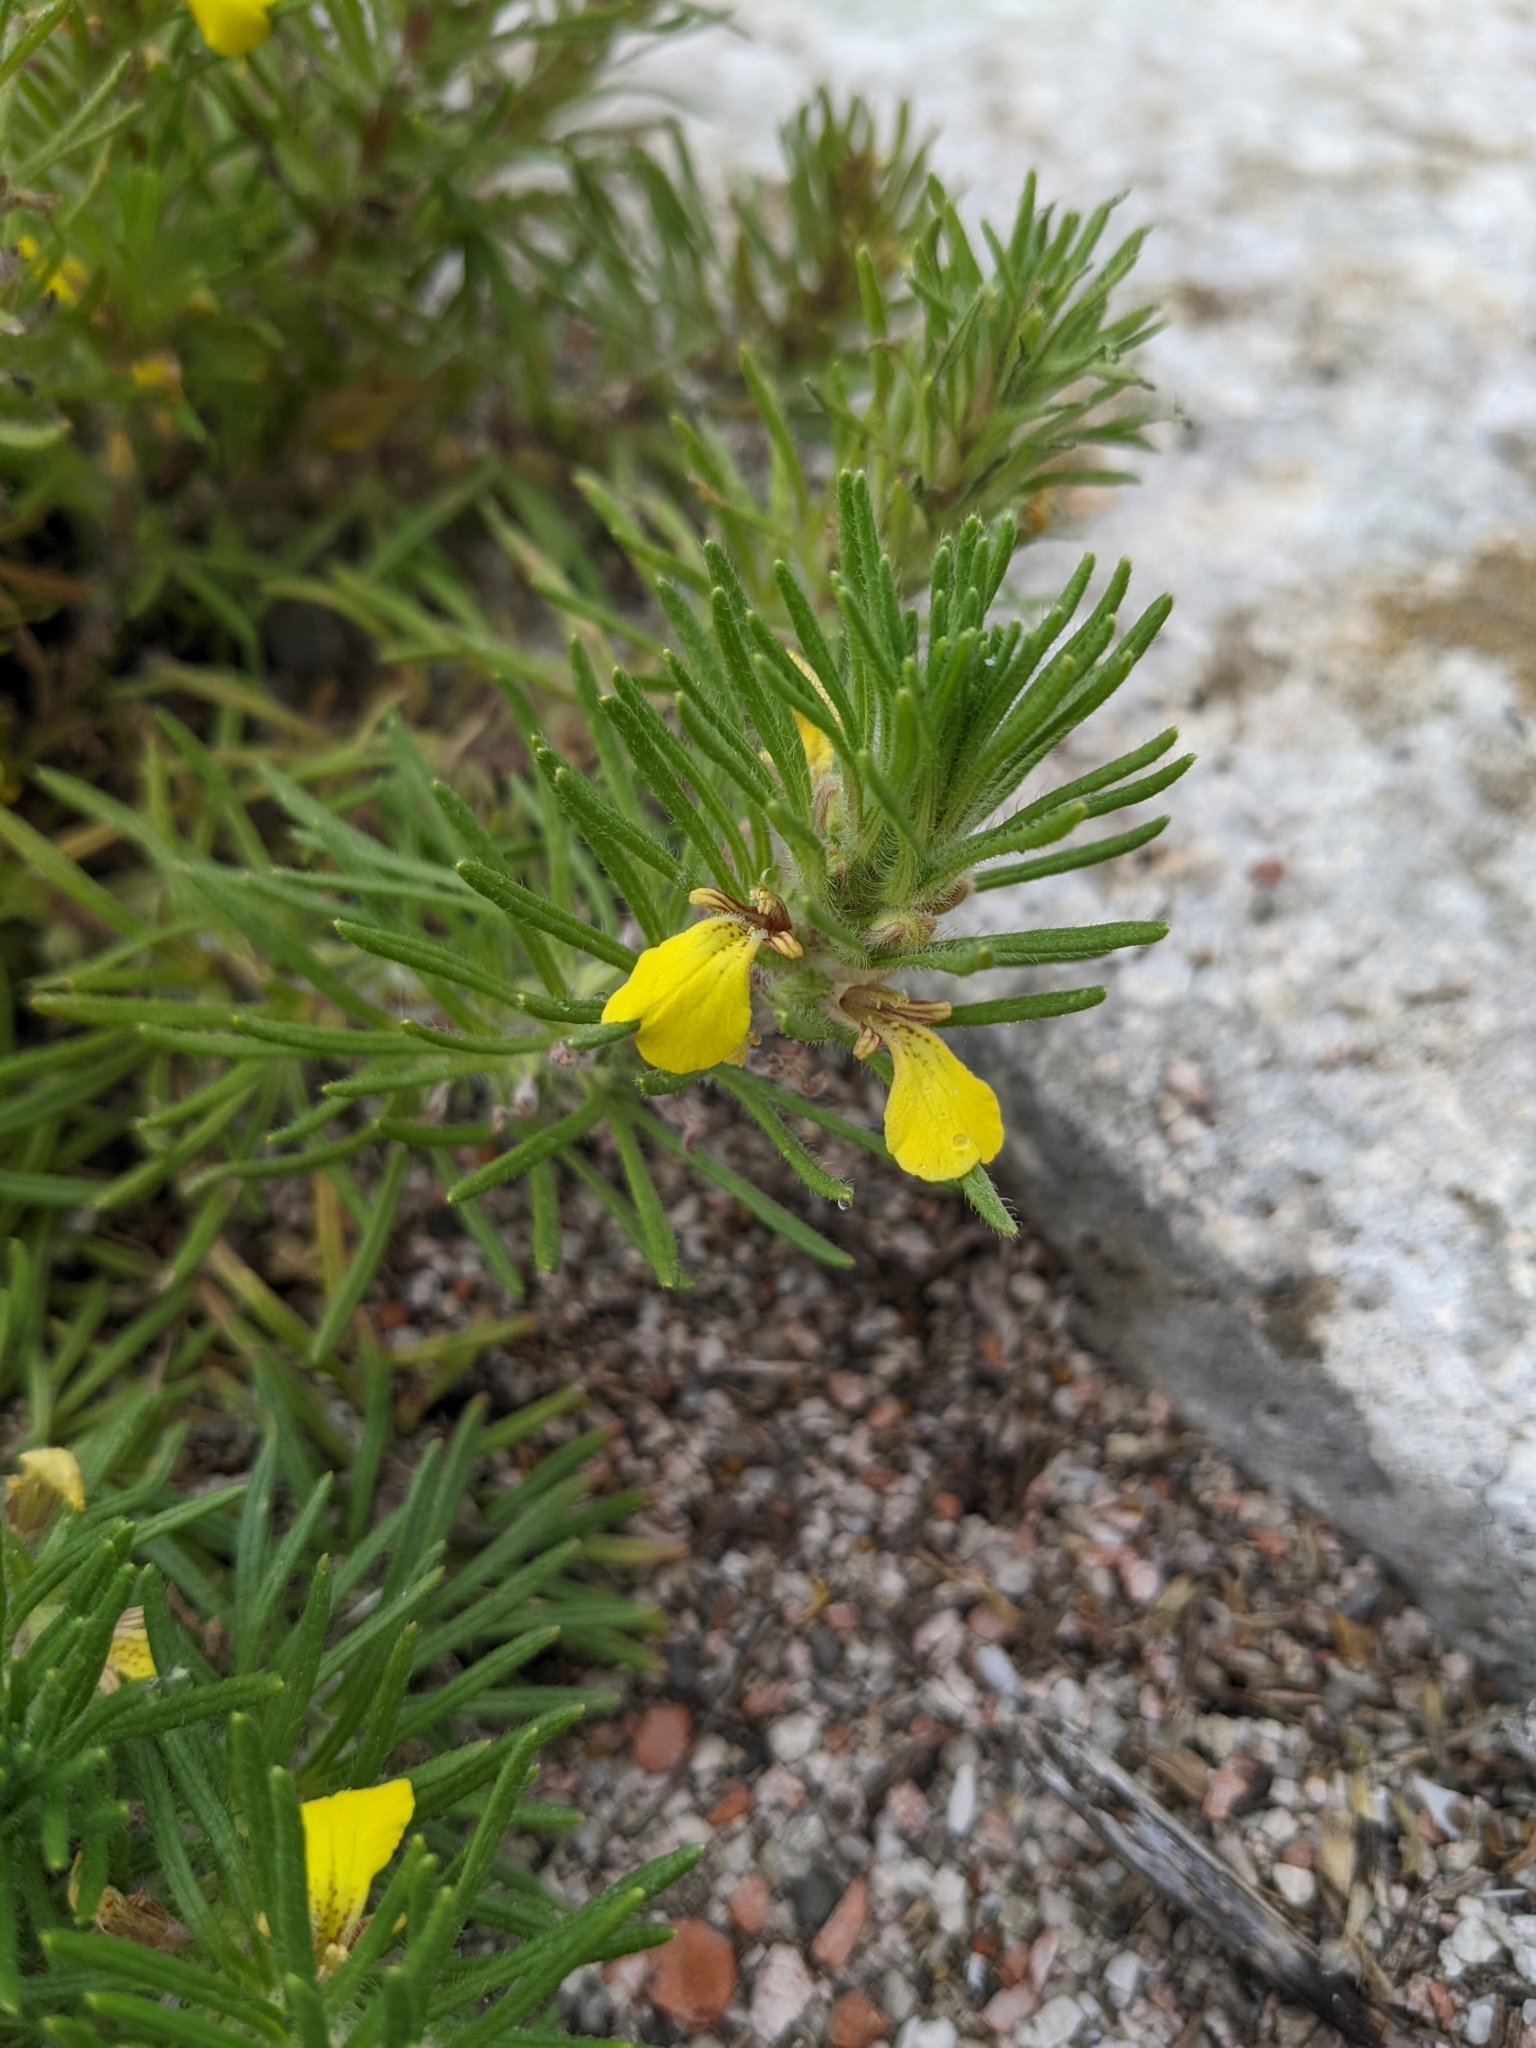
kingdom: Plantae
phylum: Tracheophyta
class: Magnoliopsida
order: Lamiales
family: Lamiaceae
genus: Ajuga
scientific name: Ajuga chamaepitys
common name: Ground-pine
